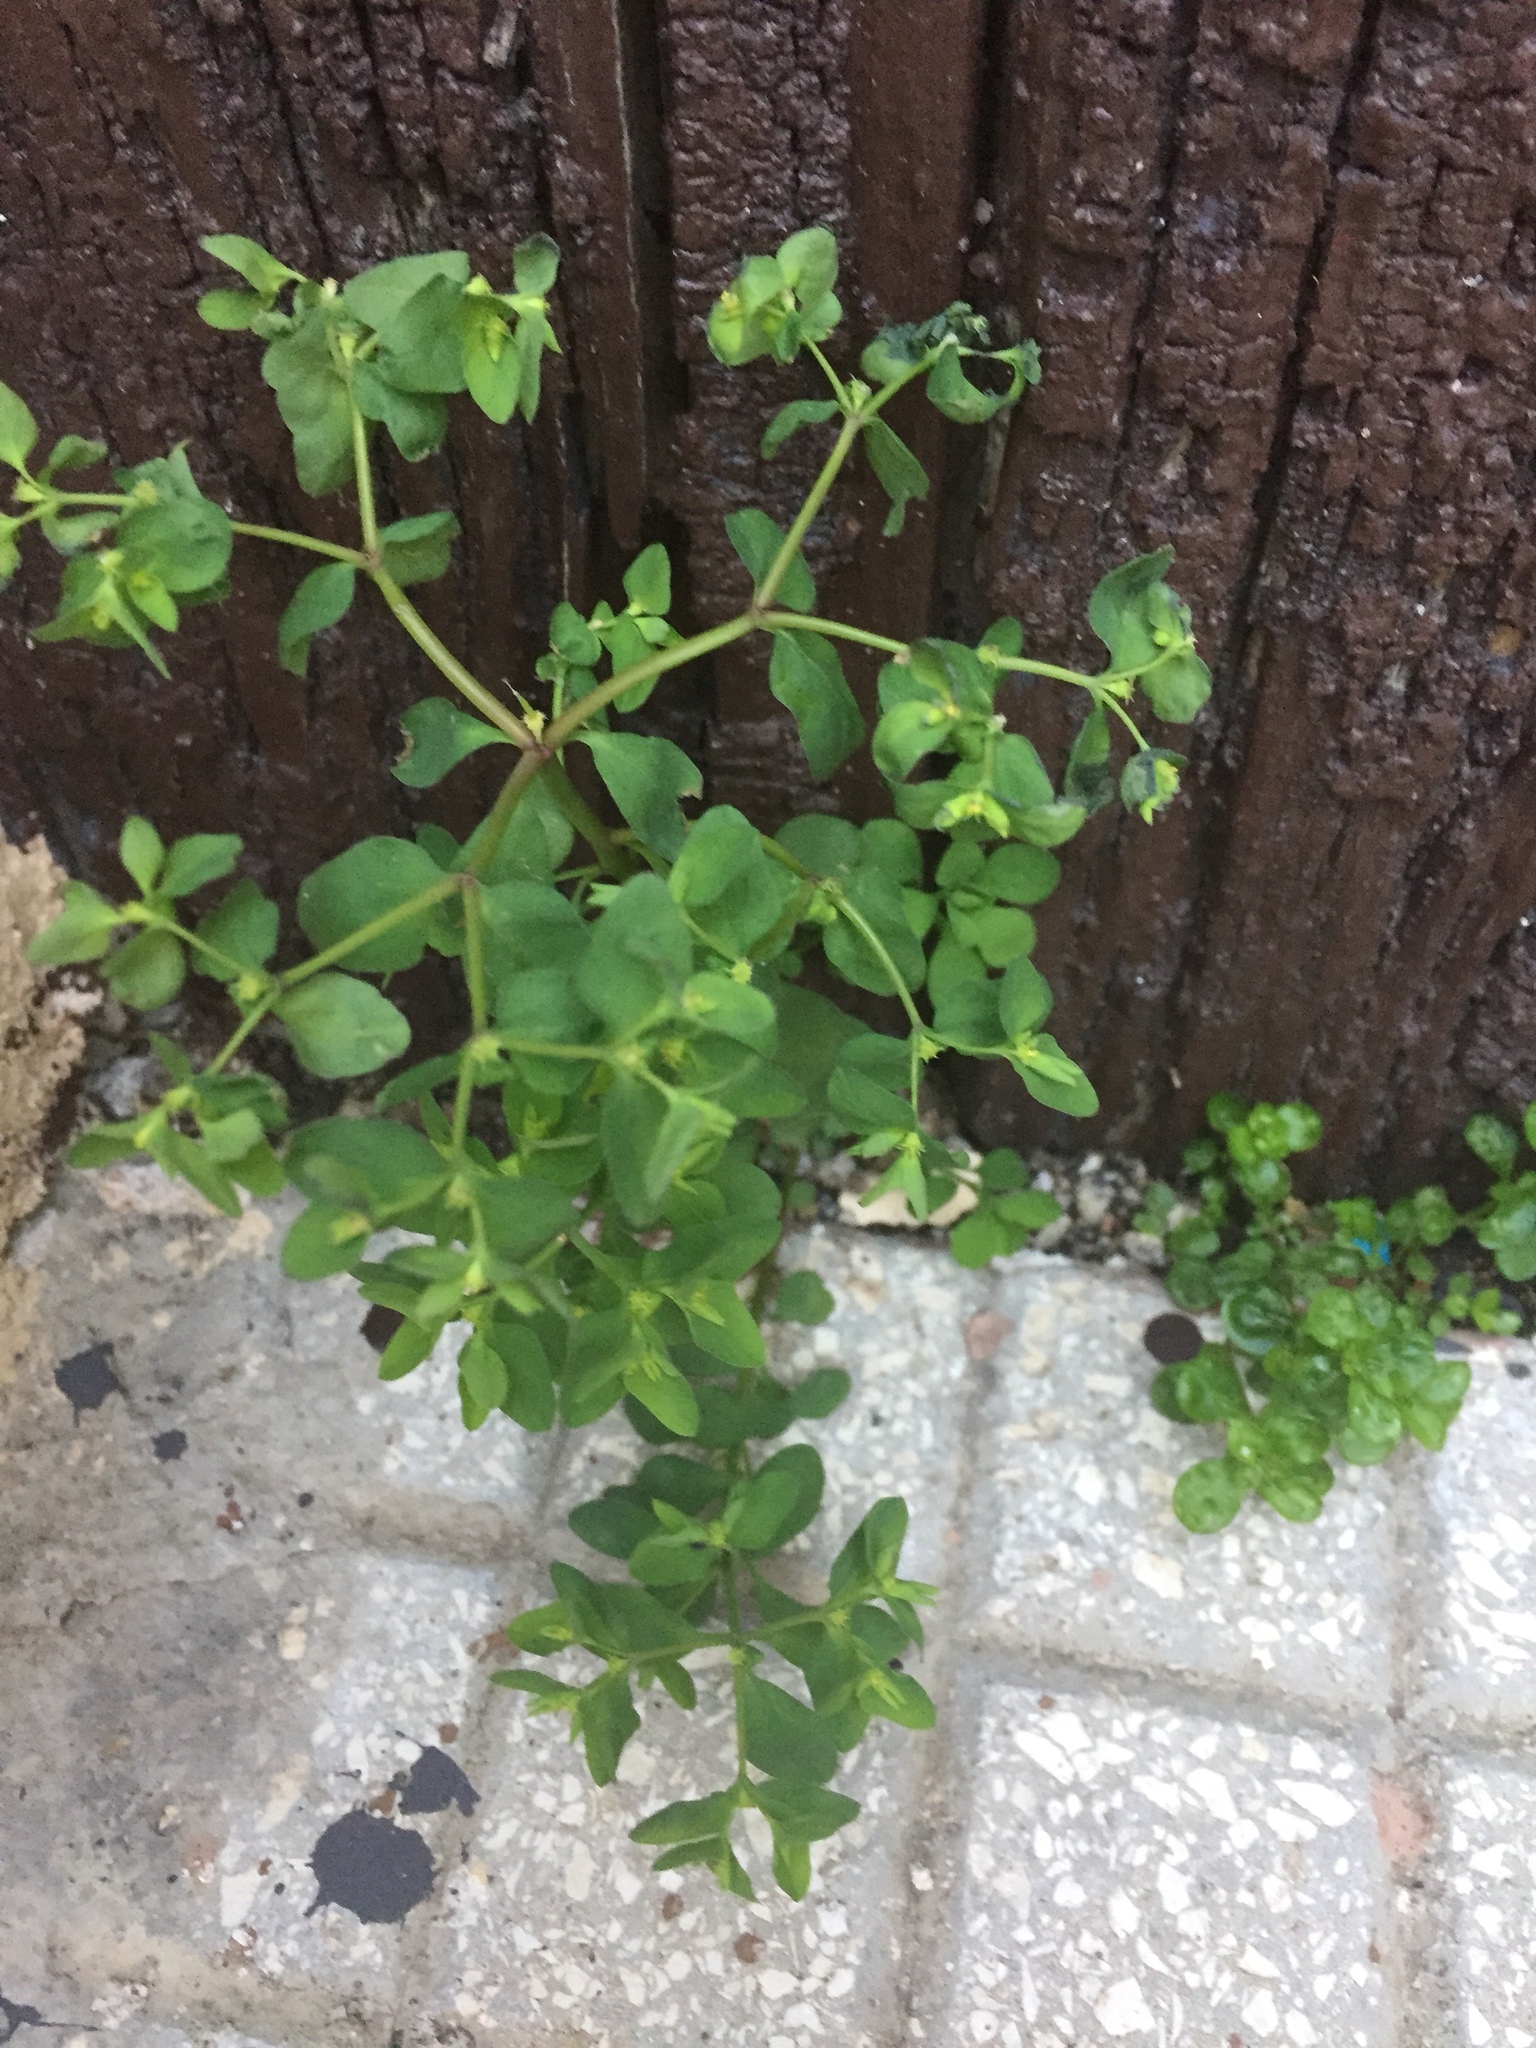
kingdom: Plantae
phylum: Tracheophyta
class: Magnoliopsida
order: Malpighiales
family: Euphorbiaceae
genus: Euphorbia
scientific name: Euphorbia peplus
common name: Petty spurge
